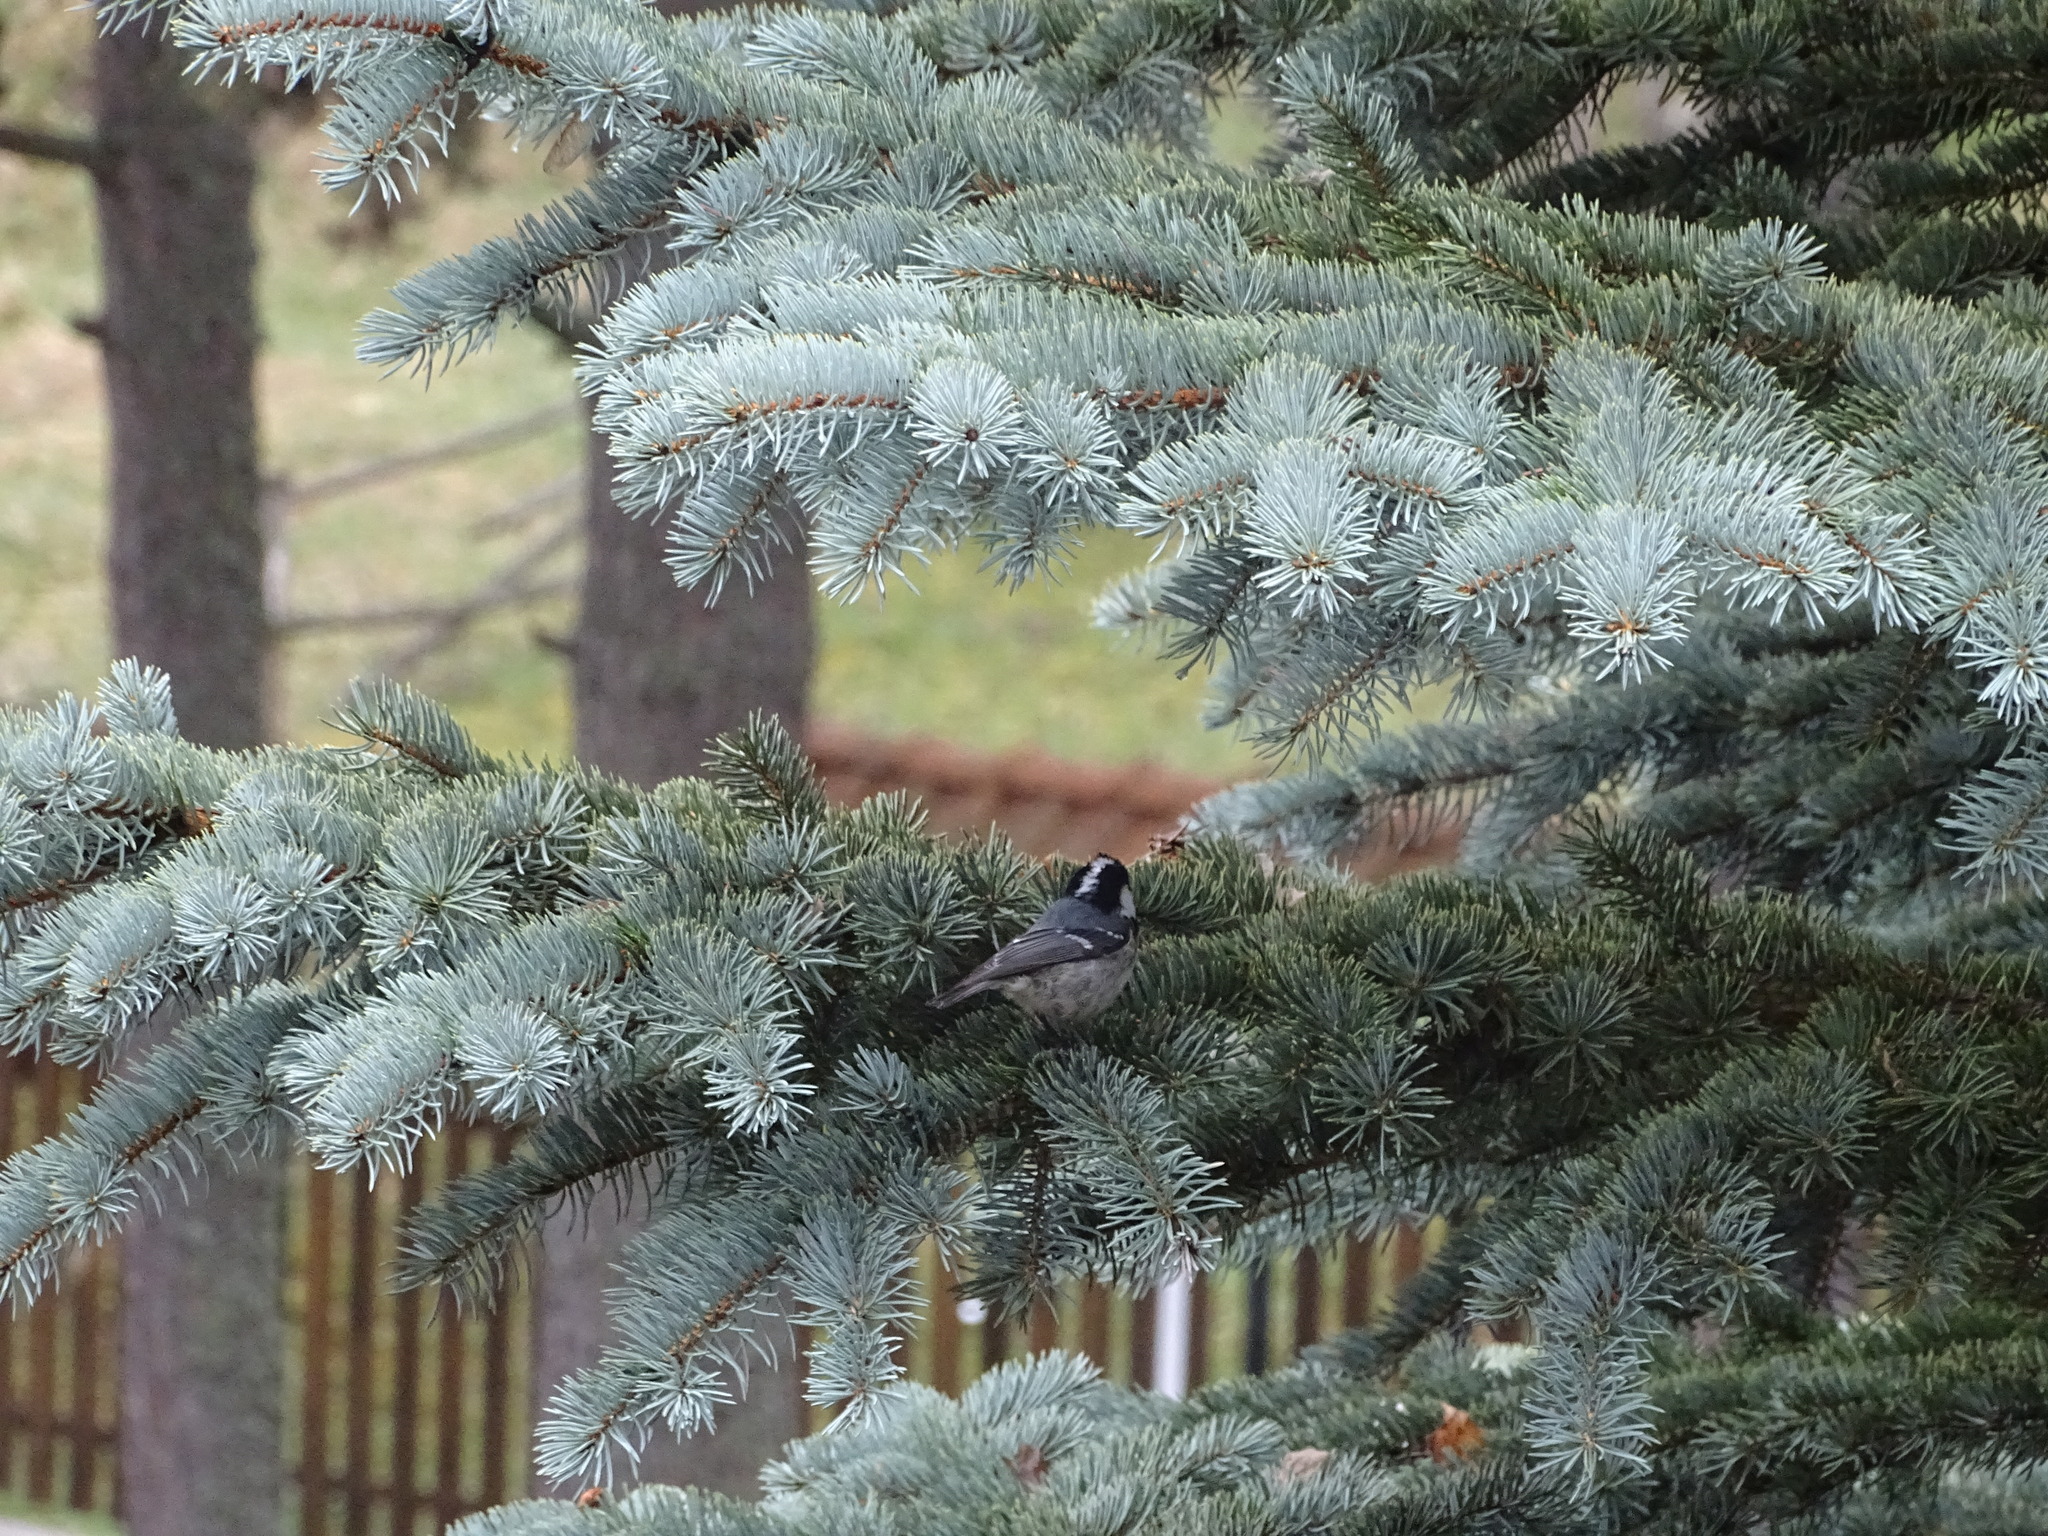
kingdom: Animalia
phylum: Chordata
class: Aves
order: Passeriformes
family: Paridae
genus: Periparus
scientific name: Periparus ater
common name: Coal tit
